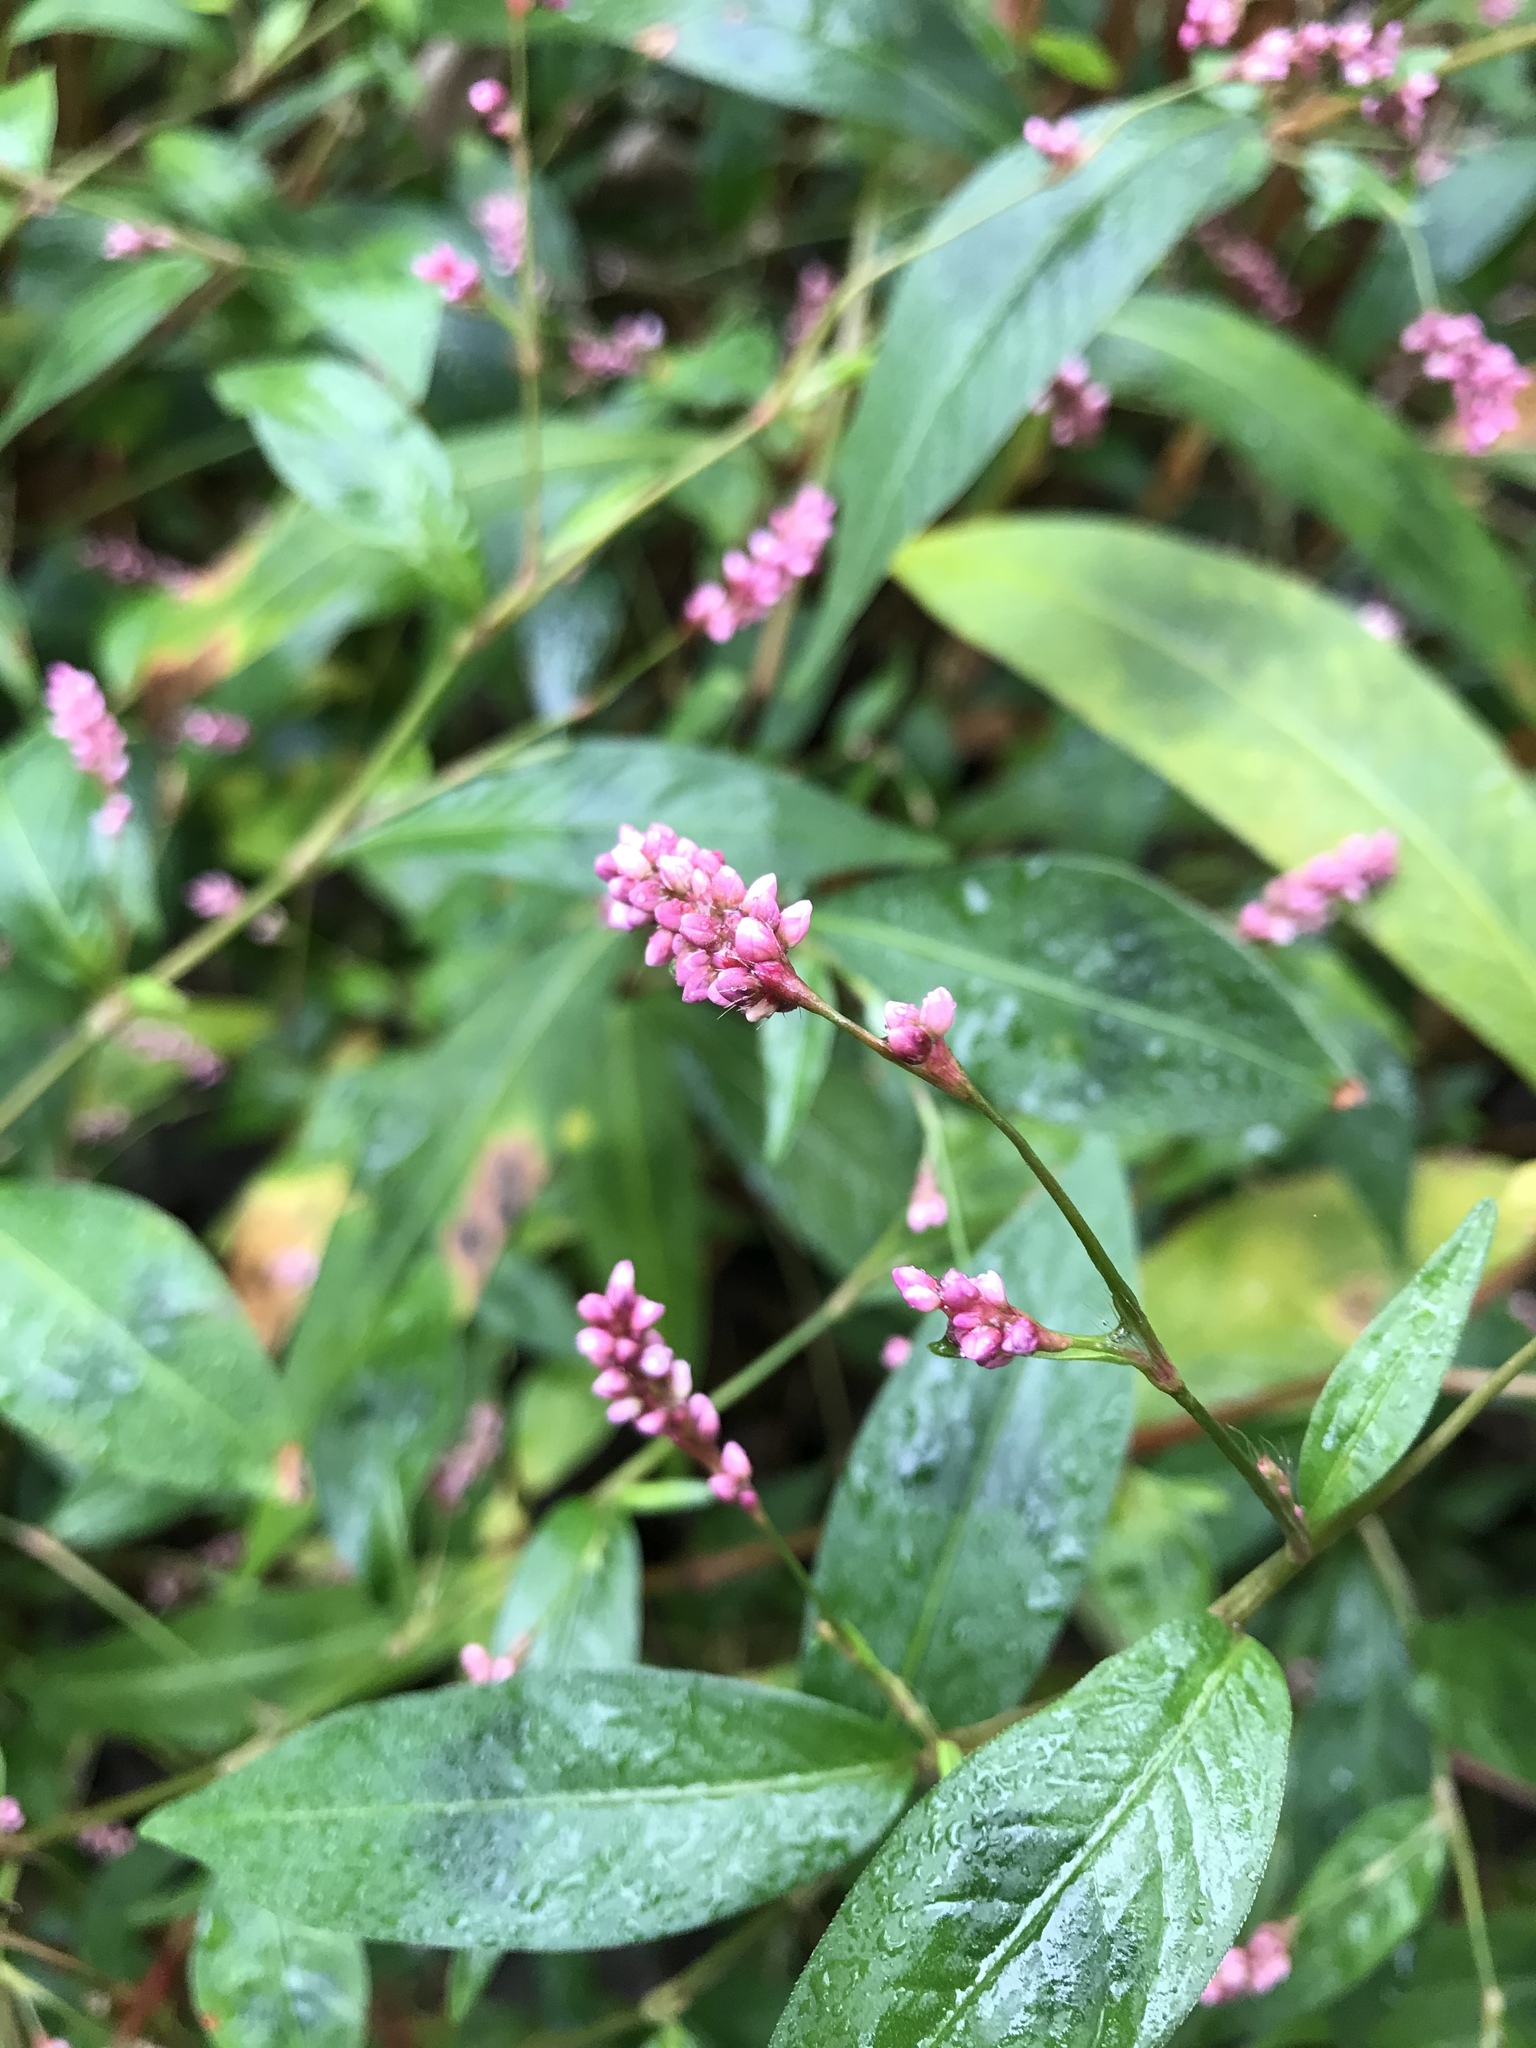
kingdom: Plantae
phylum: Tracheophyta
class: Magnoliopsida
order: Caryophyllales
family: Polygonaceae
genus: Persicaria
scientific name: Persicaria longiseta
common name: Bristly lady's-thumb
